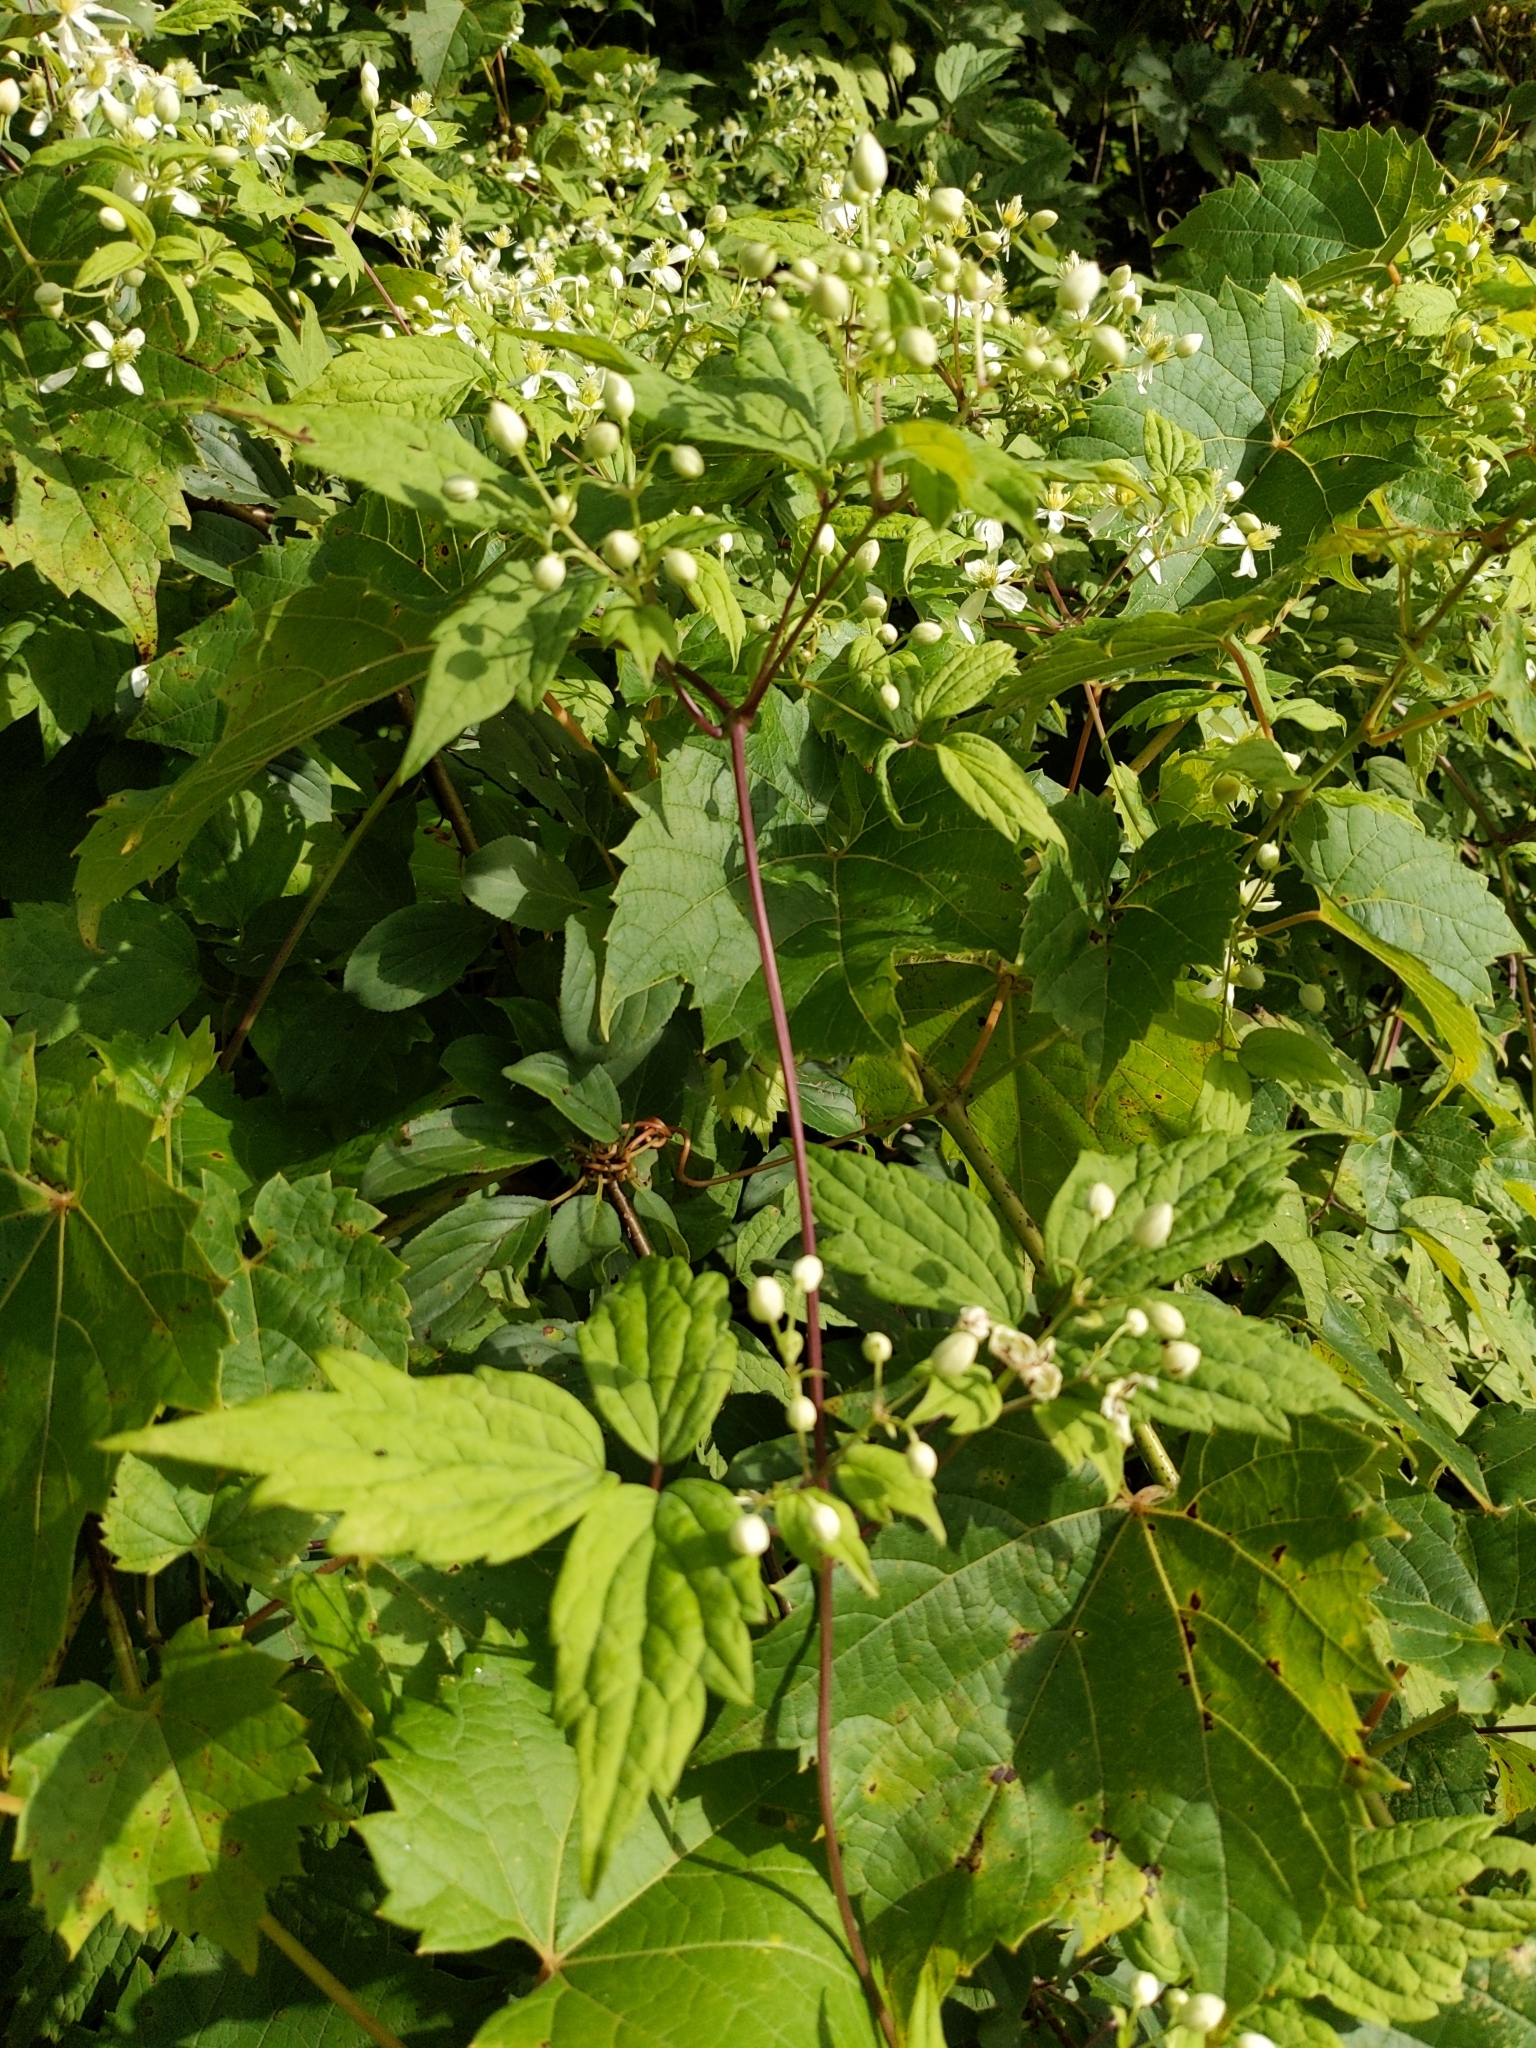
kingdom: Plantae
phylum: Tracheophyta
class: Magnoliopsida
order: Ranunculales
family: Ranunculaceae
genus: Clematis
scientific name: Clematis virginiana
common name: Virgin's-bower
